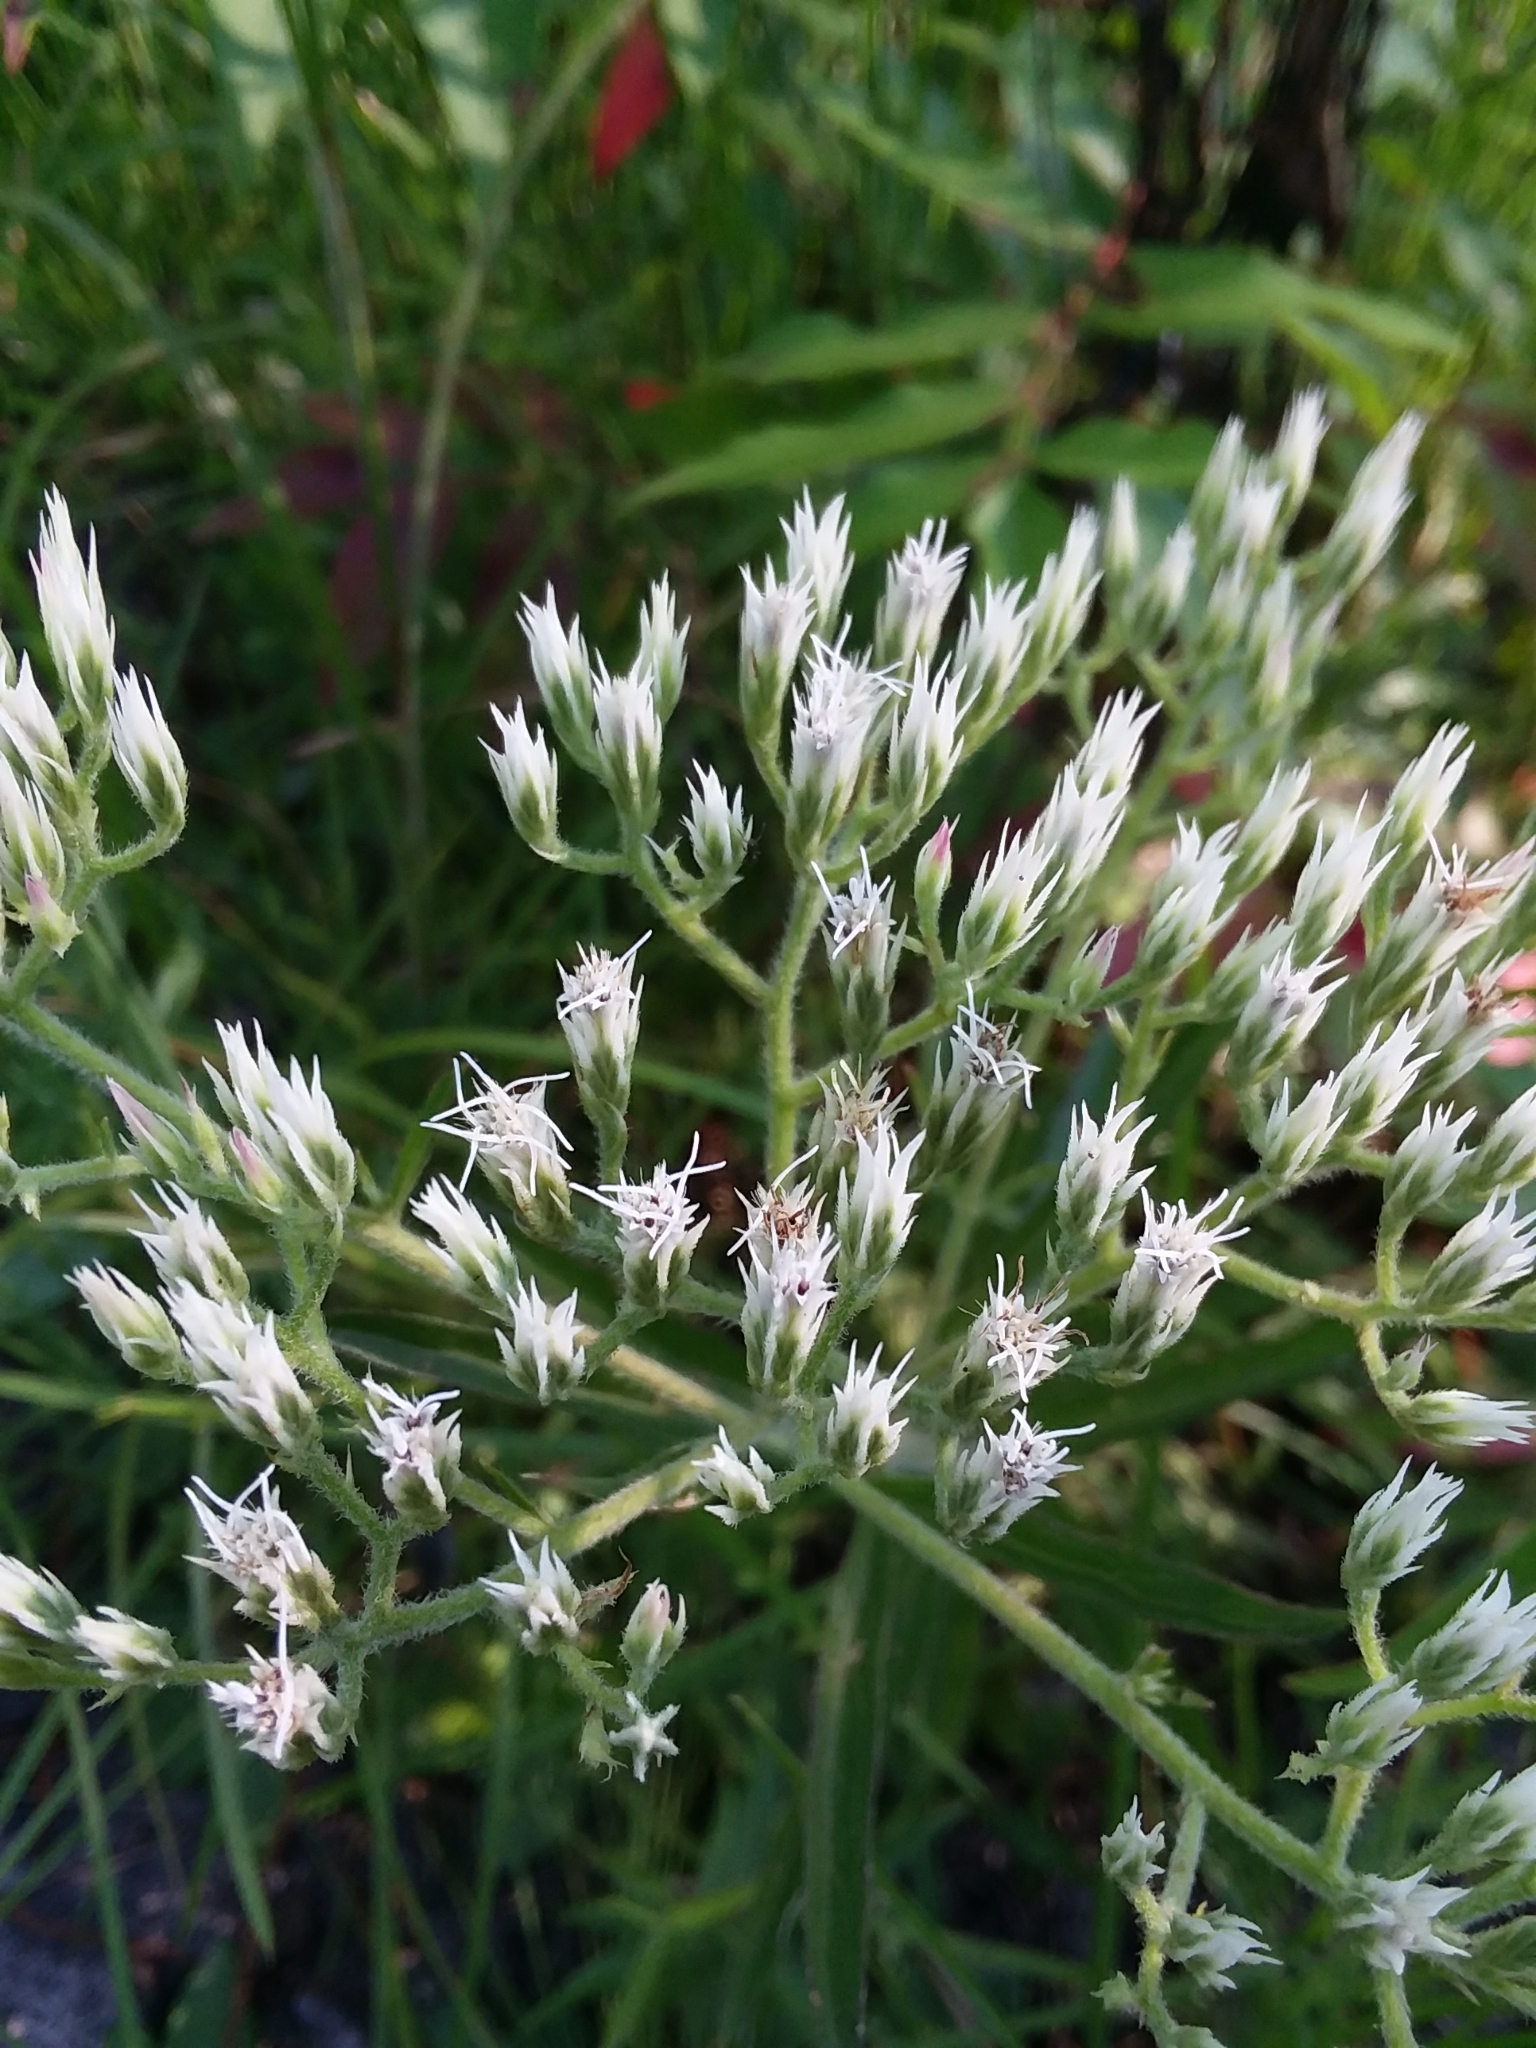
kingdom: Plantae
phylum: Tracheophyta
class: Magnoliopsida
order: Asterales
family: Asteraceae
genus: Eupatorium
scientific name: Eupatorium album
